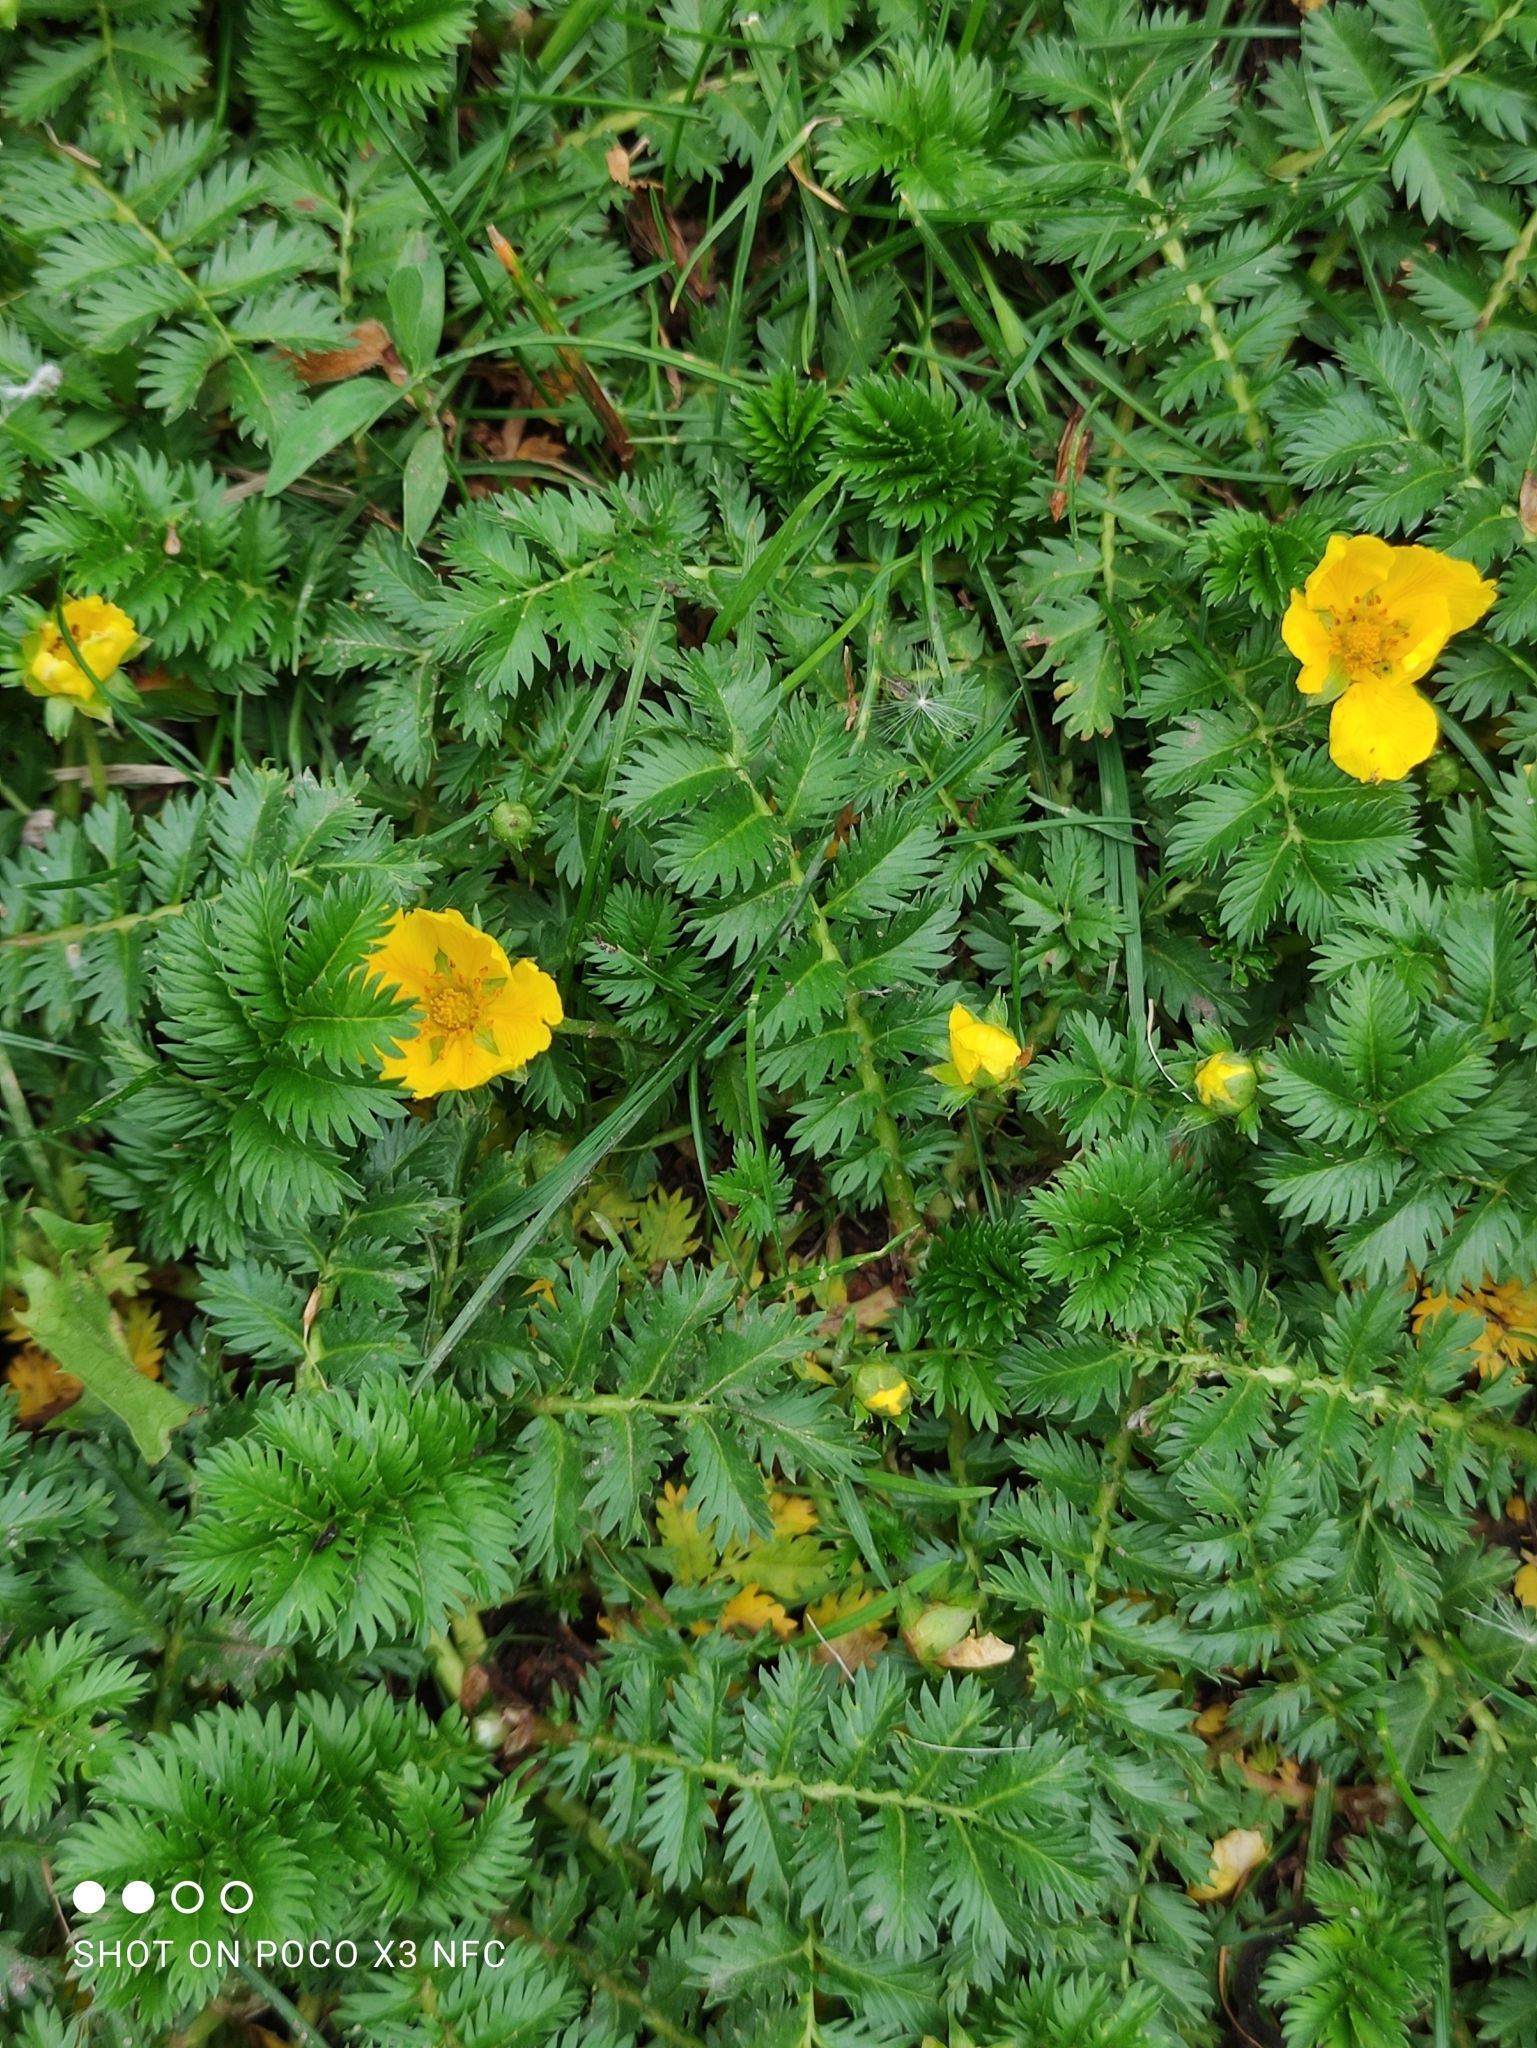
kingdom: Plantae
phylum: Tracheophyta
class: Magnoliopsida
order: Rosales
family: Rosaceae
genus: Argentina
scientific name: Argentina anserina
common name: Common silverweed
